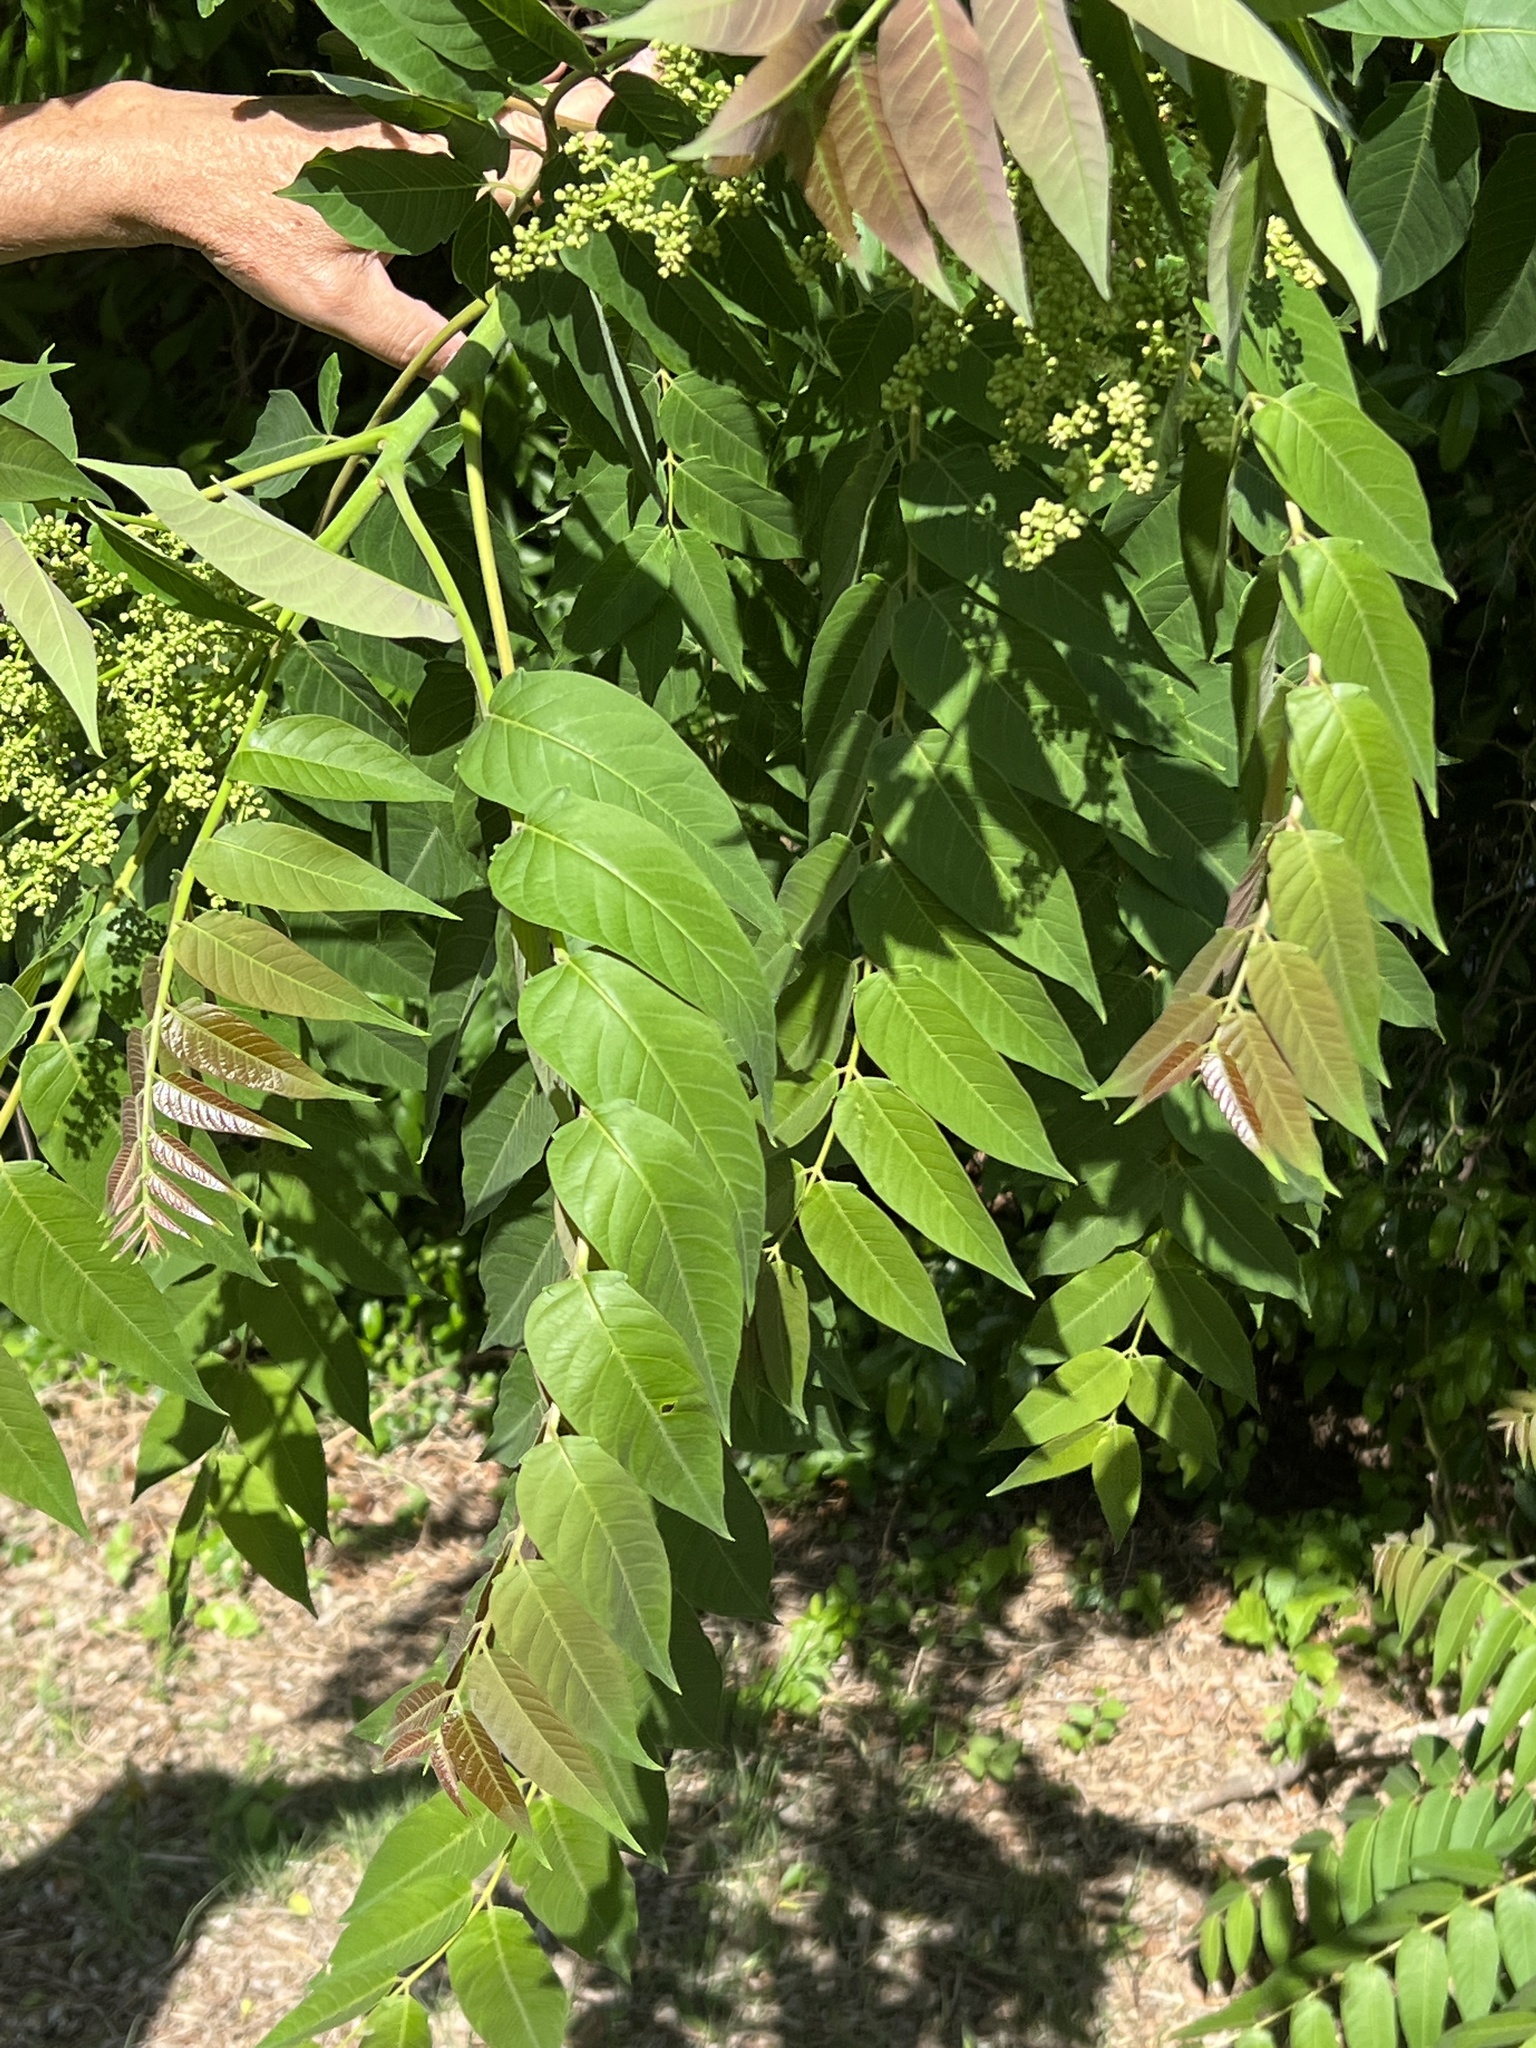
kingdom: Plantae
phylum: Tracheophyta
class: Magnoliopsida
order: Sapindales
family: Simaroubaceae
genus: Ailanthus
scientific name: Ailanthus altissima
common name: Tree-of-heaven
